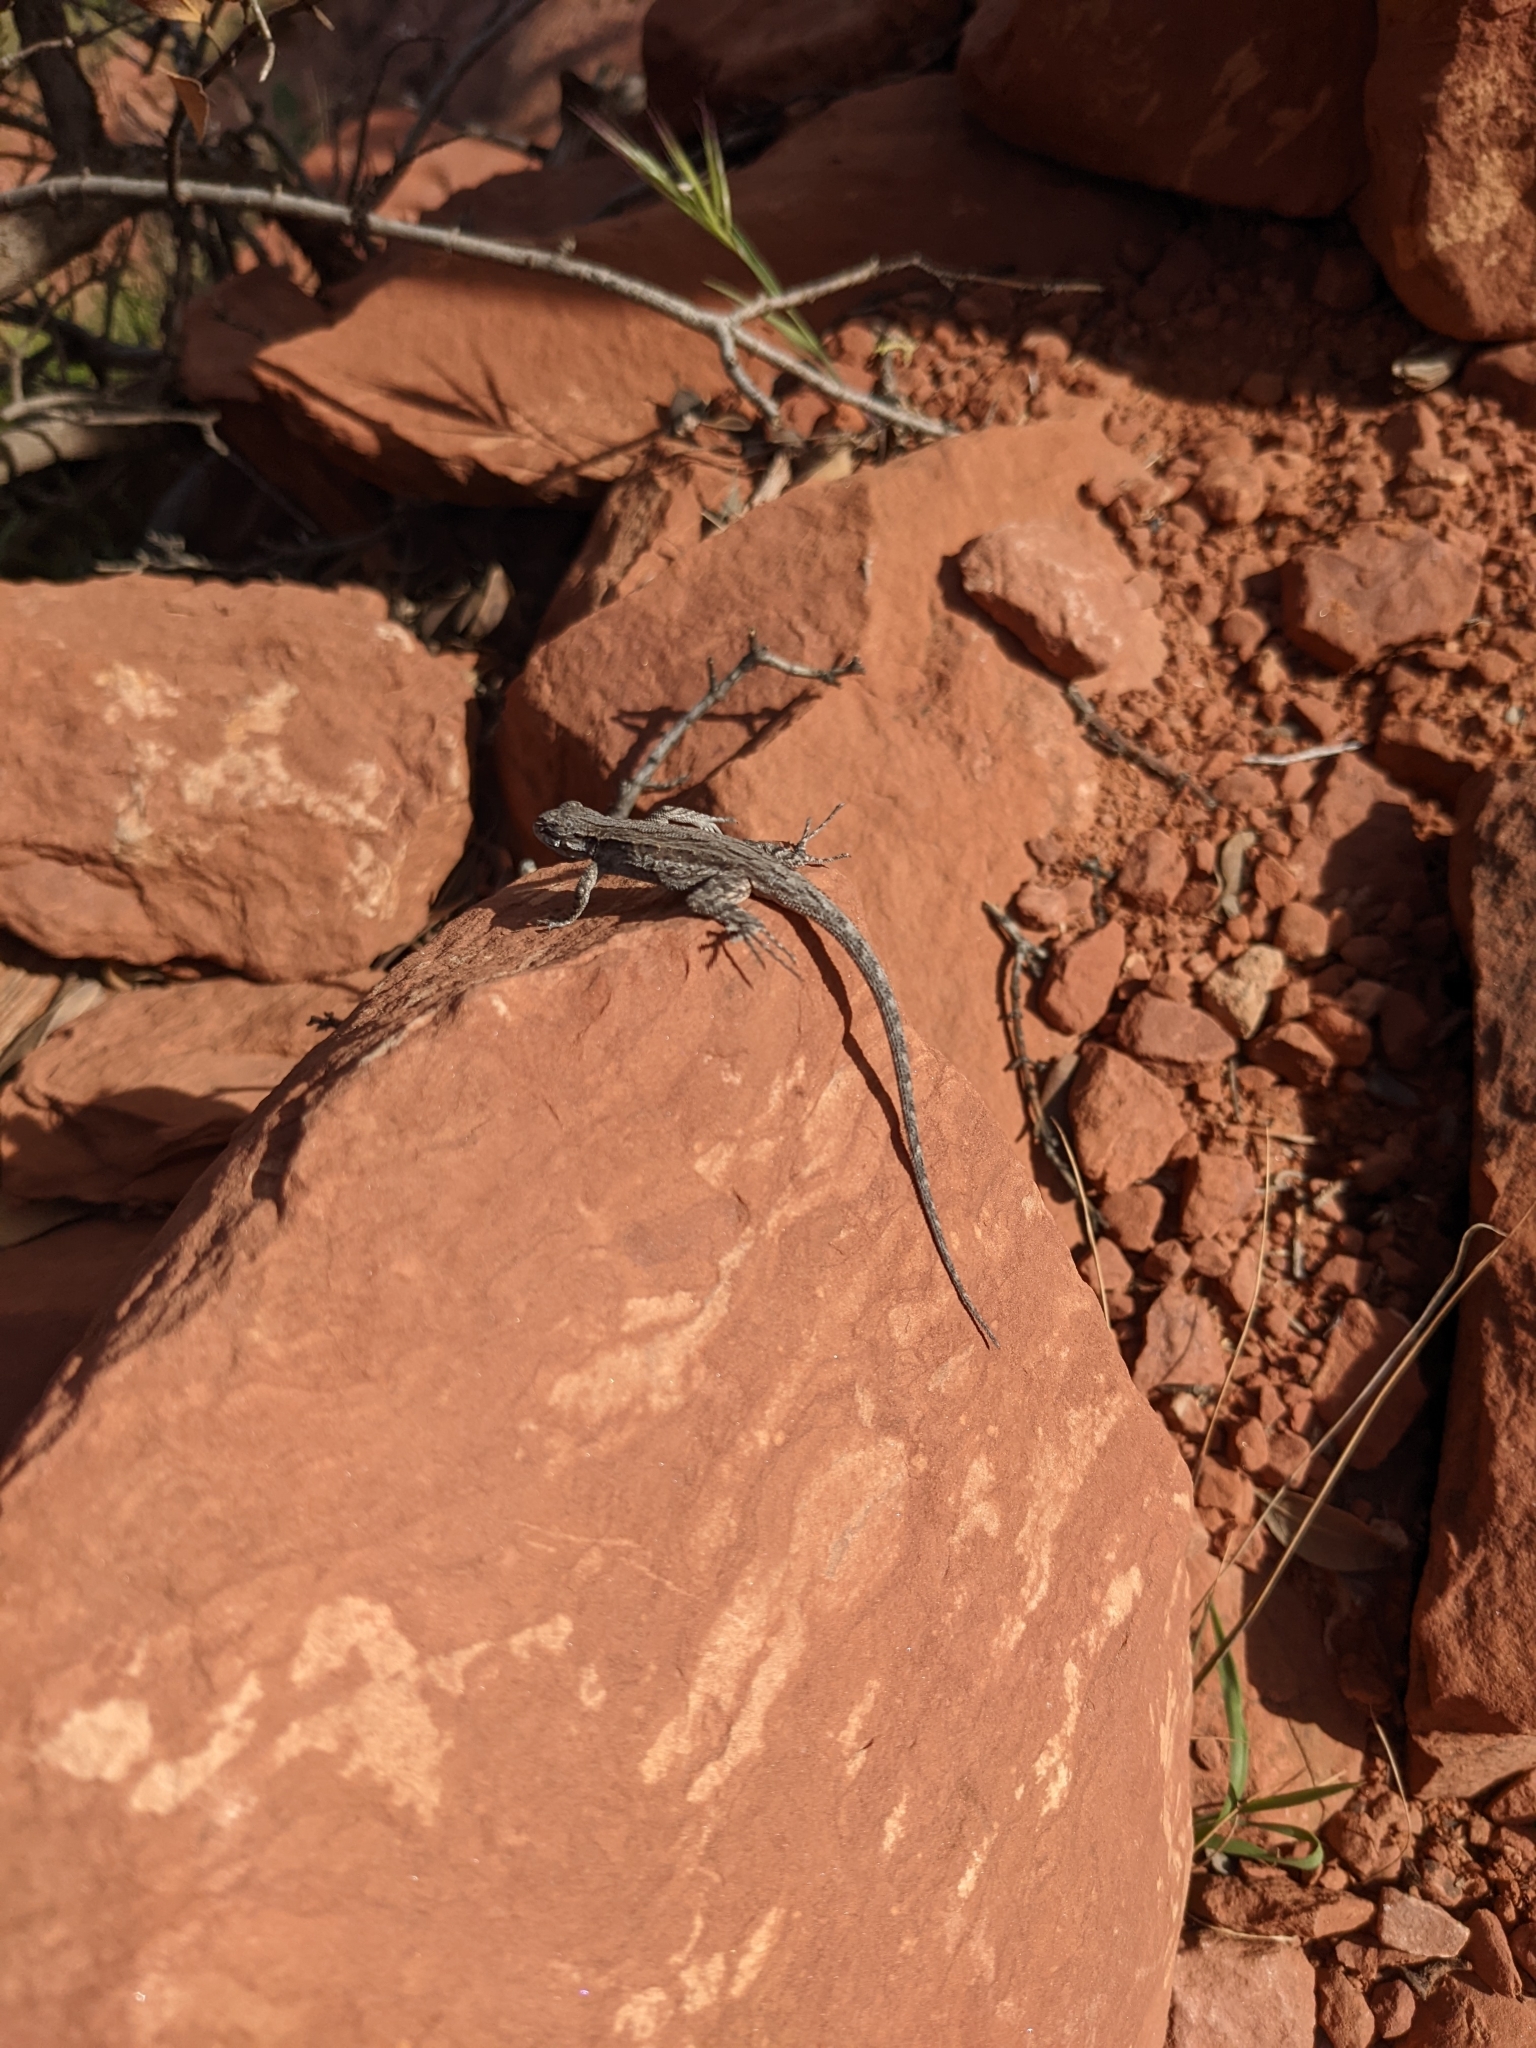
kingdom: Animalia
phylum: Chordata
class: Squamata
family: Phrynosomatidae
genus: Urosaurus
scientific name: Urosaurus ornatus
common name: Ornate tree lizard
